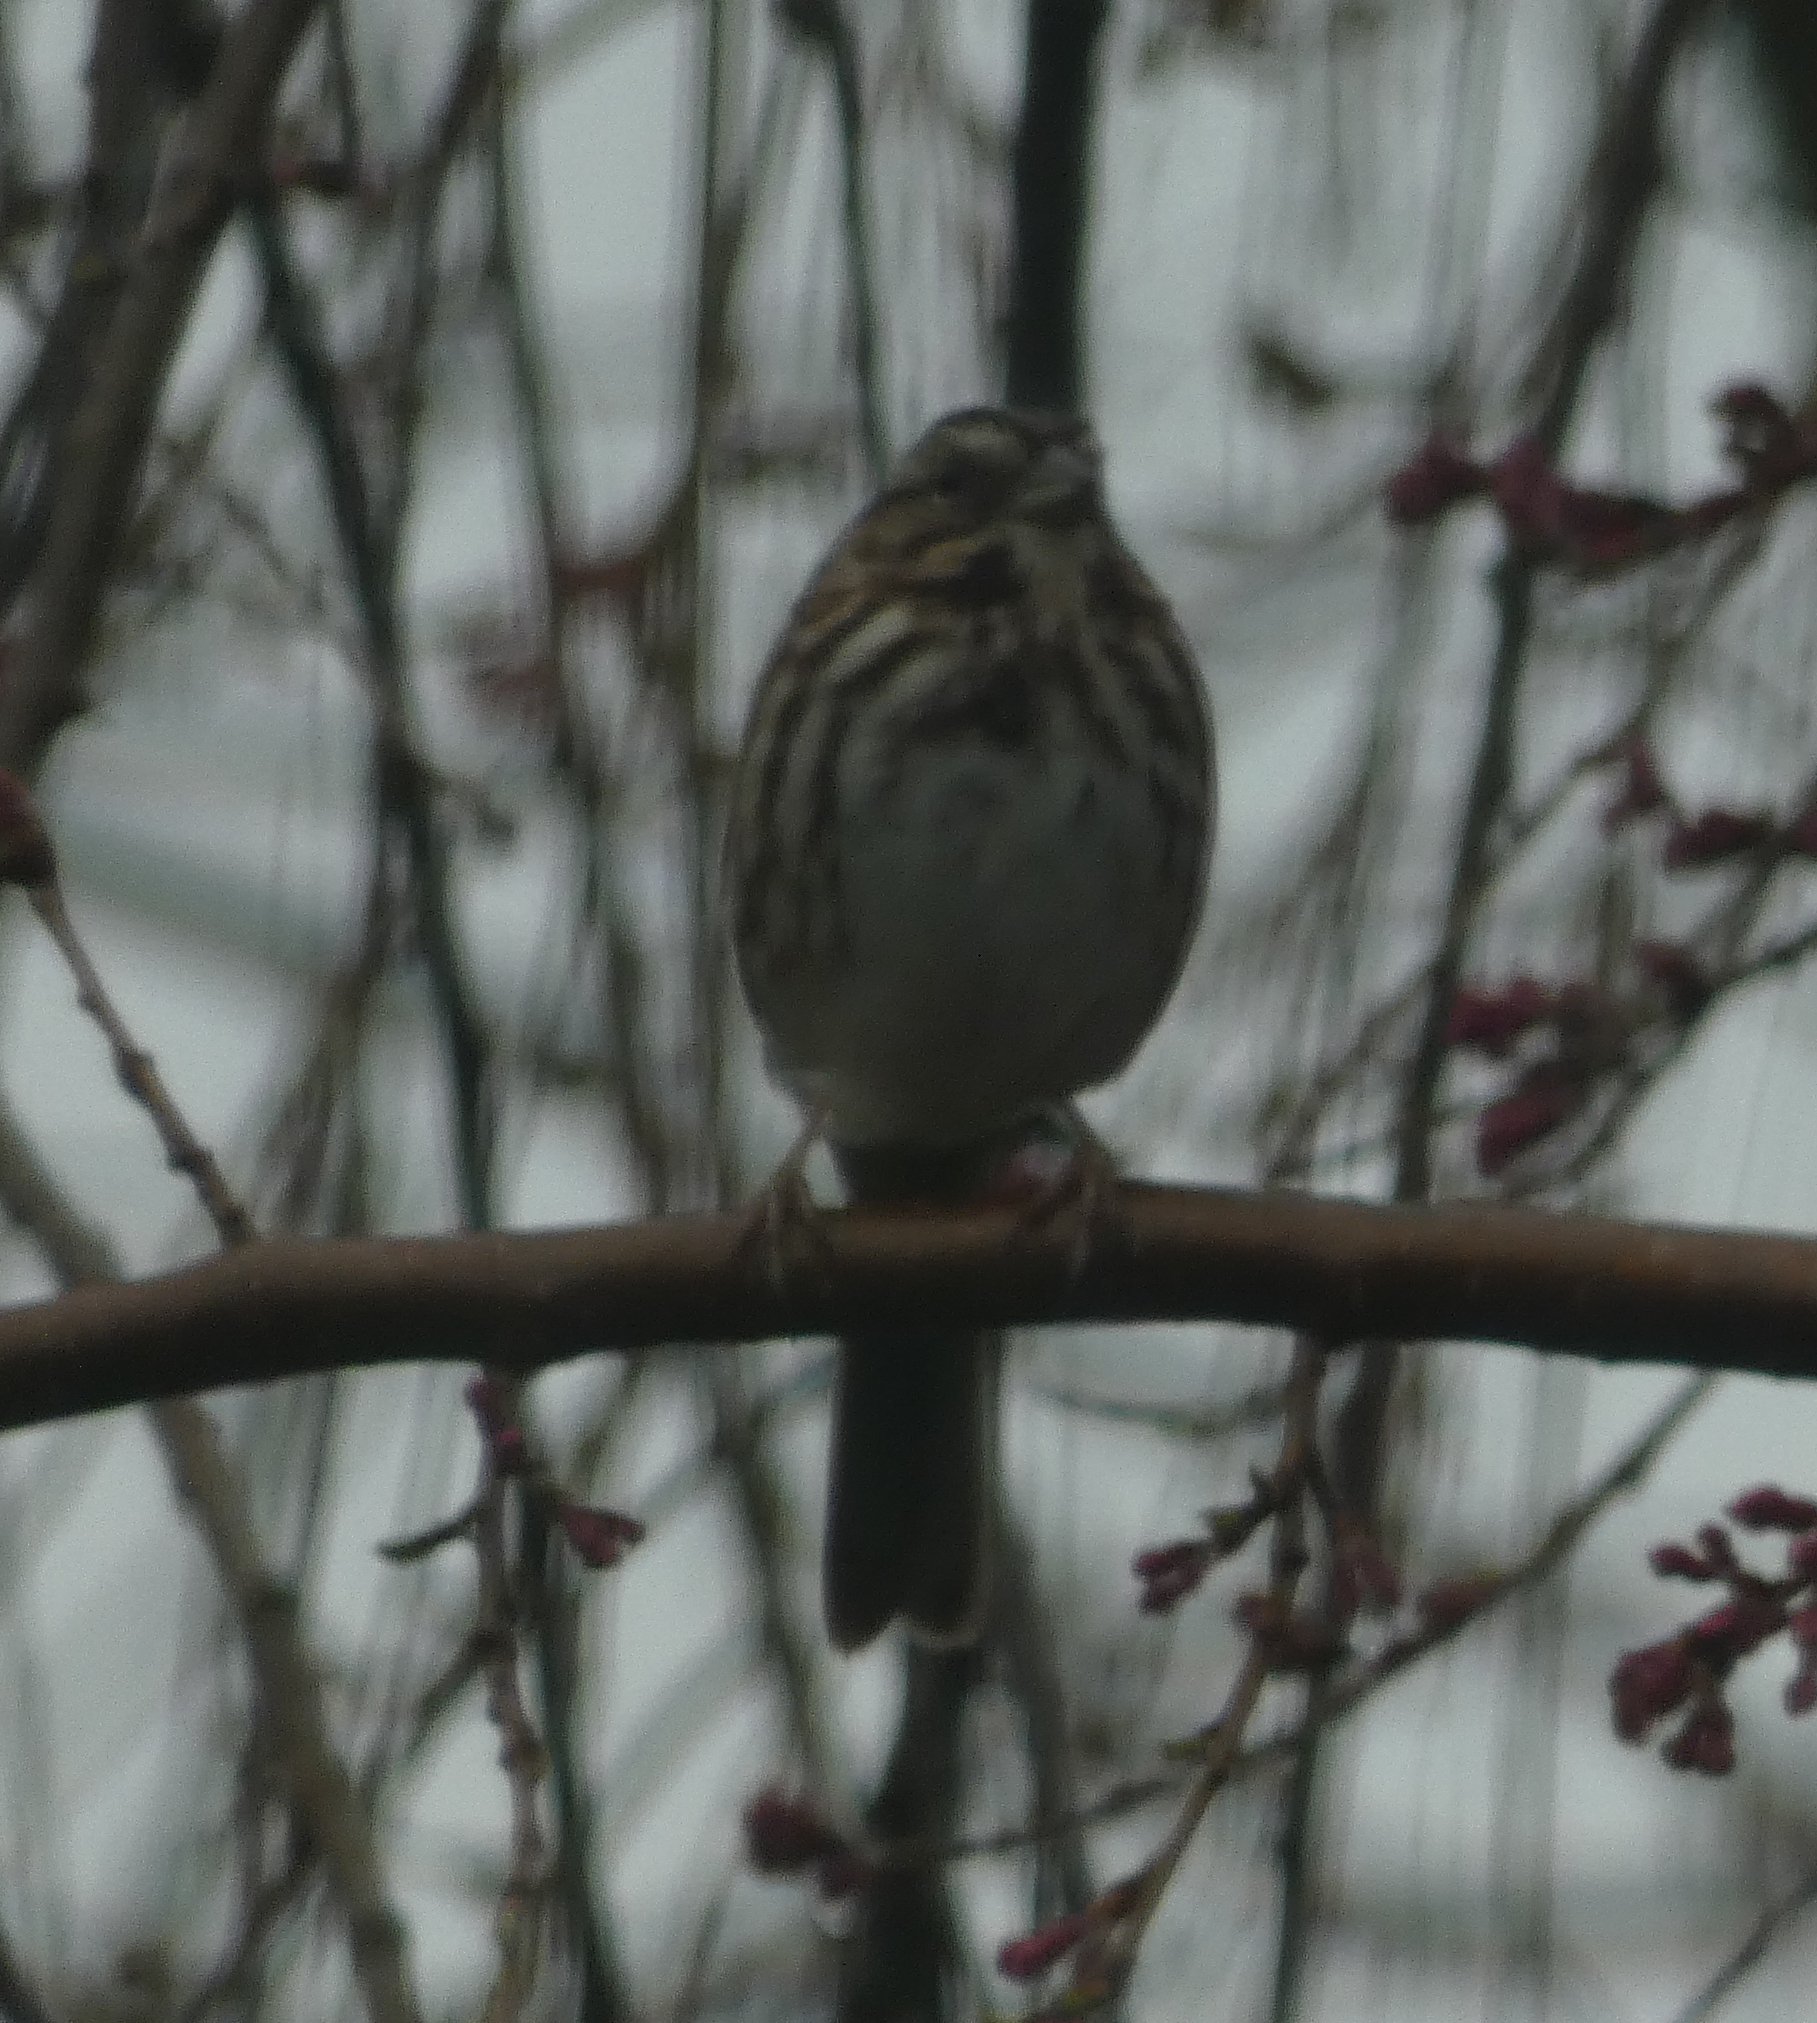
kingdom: Animalia
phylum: Chordata
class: Aves
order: Passeriformes
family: Passerellidae
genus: Melospiza
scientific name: Melospiza melodia
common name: Song sparrow
